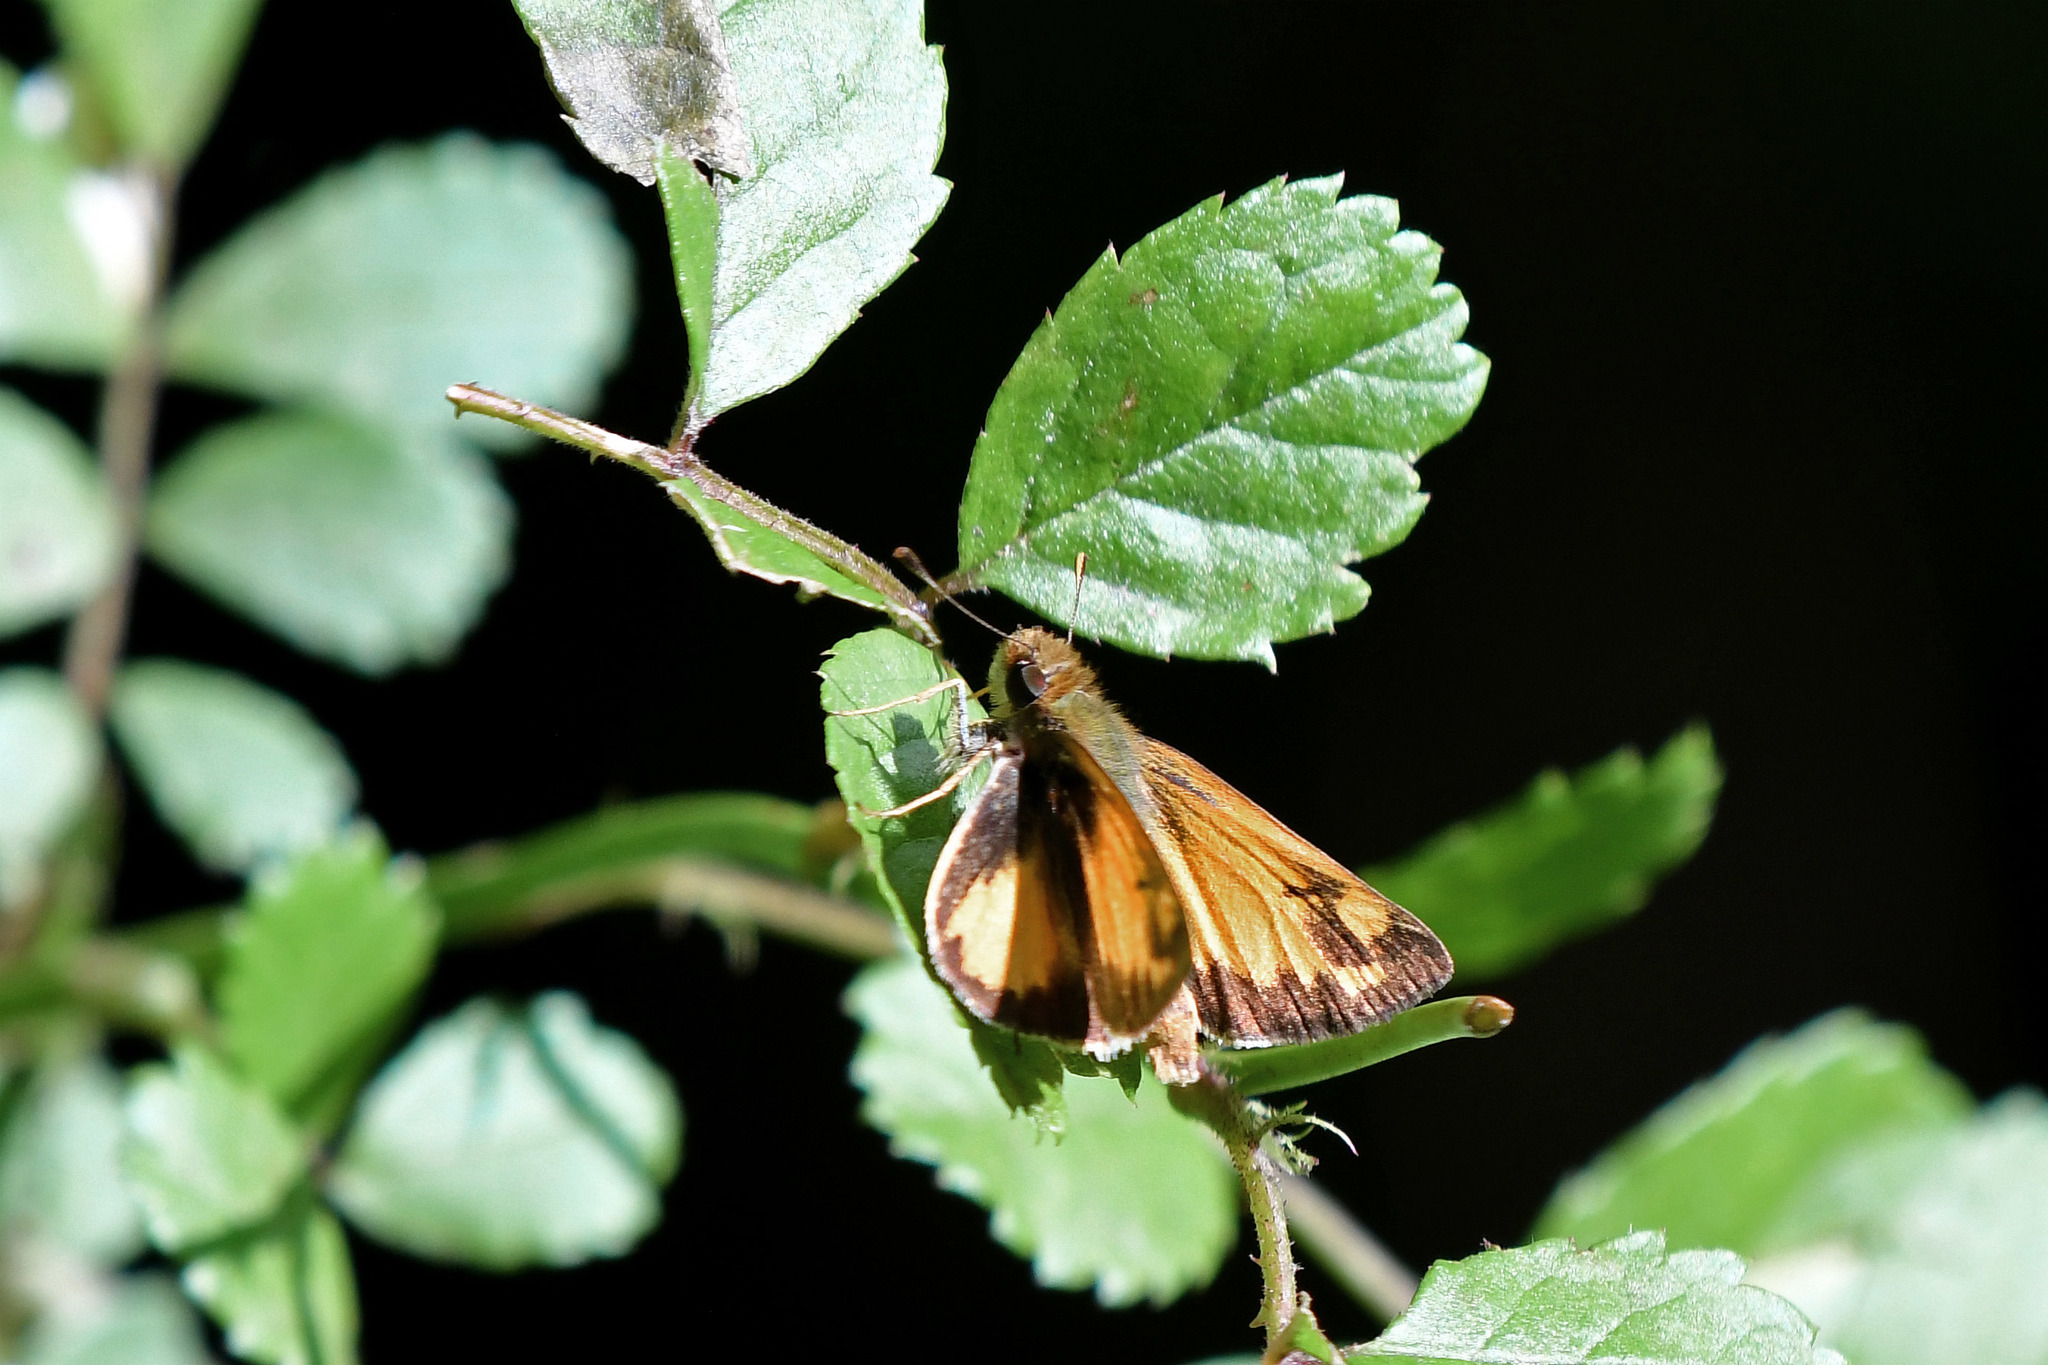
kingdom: Animalia
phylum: Arthropoda
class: Insecta
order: Lepidoptera
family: Hesperiidae
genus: Lon
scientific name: Lon zabulon
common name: Zabulon skipper
